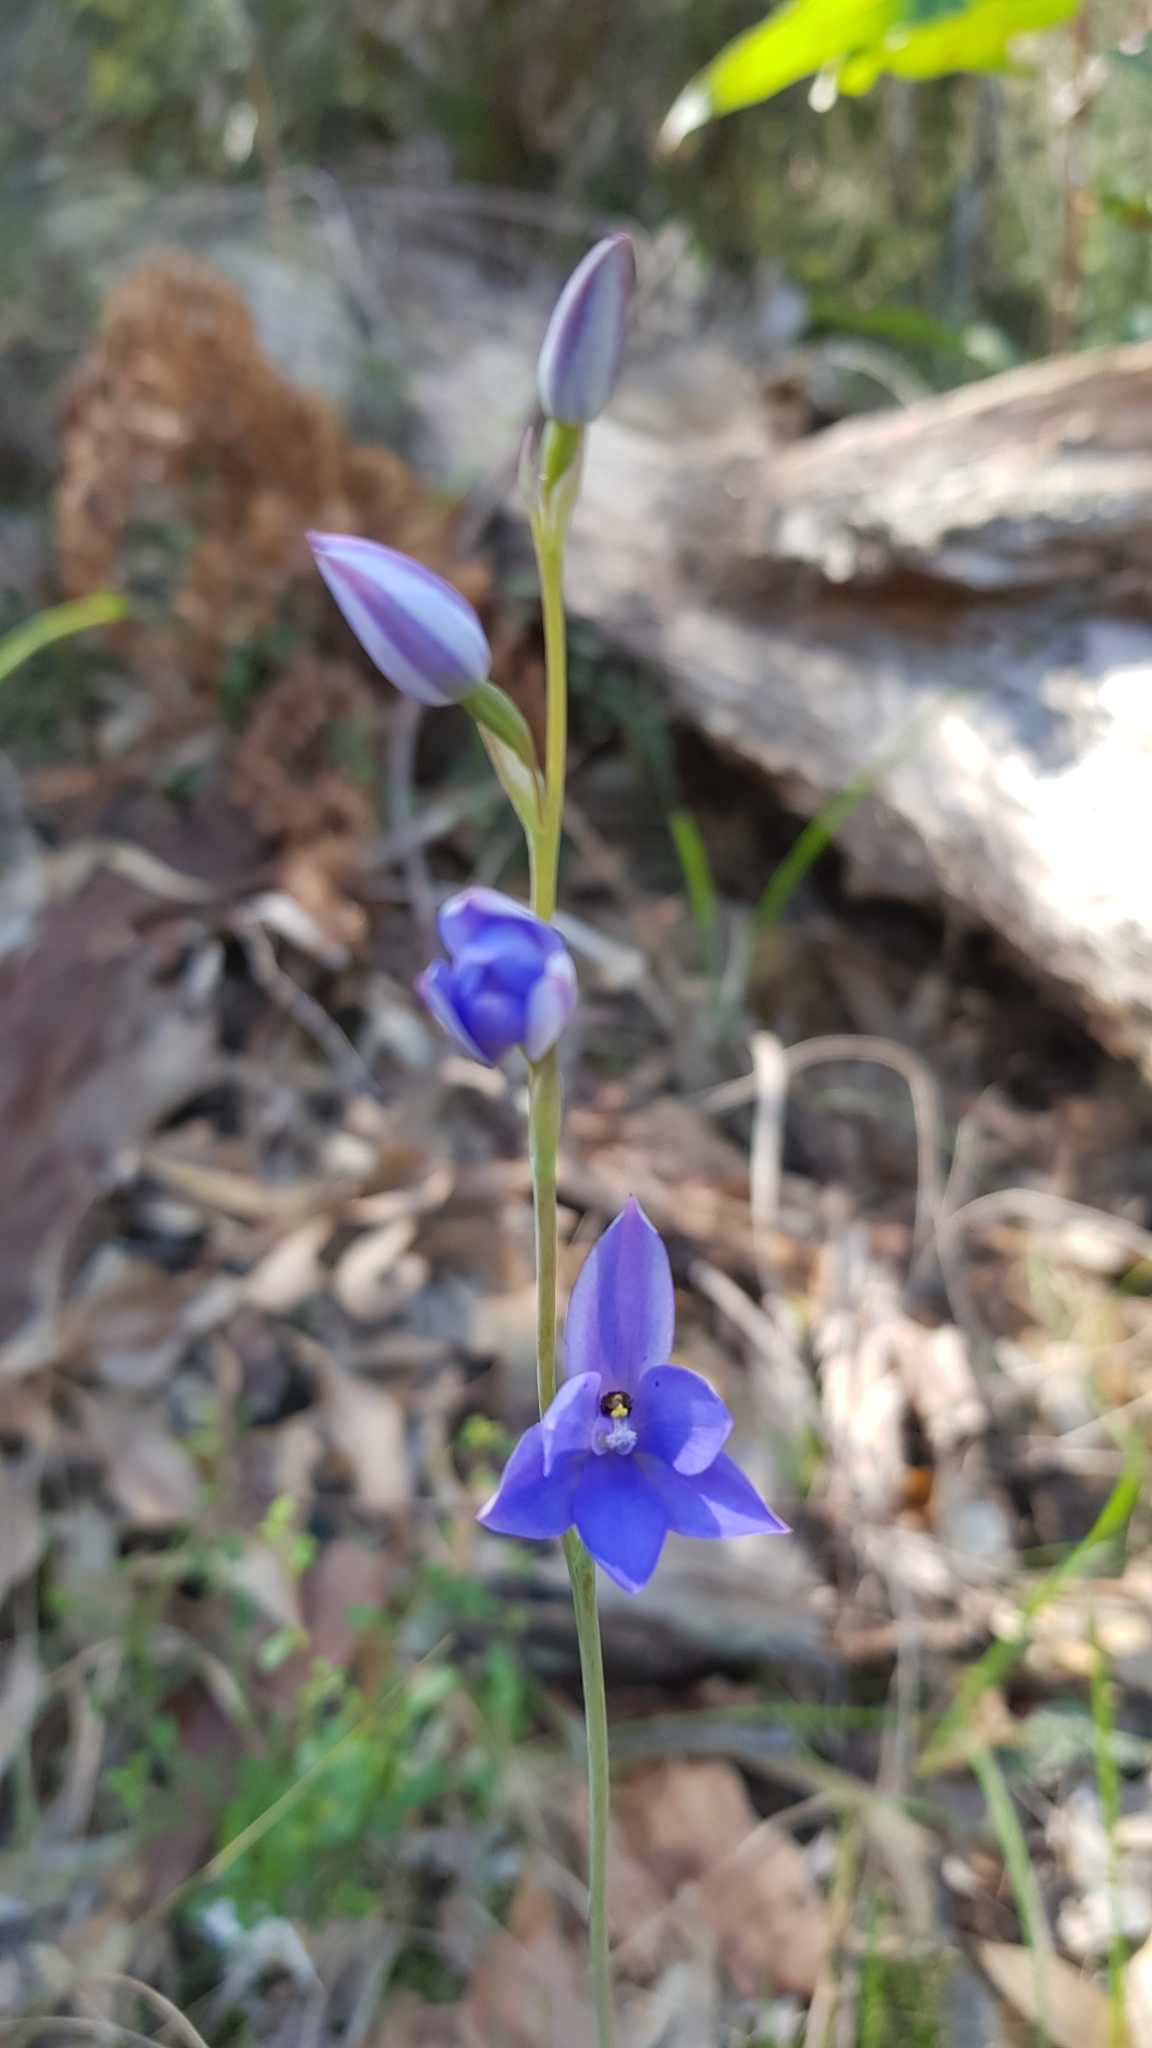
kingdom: Plantae
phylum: Tracheophyta
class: Liliopsida
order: Asparagales
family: Orchidaceae
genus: Thelymitra
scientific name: Thelymitra ixioides
